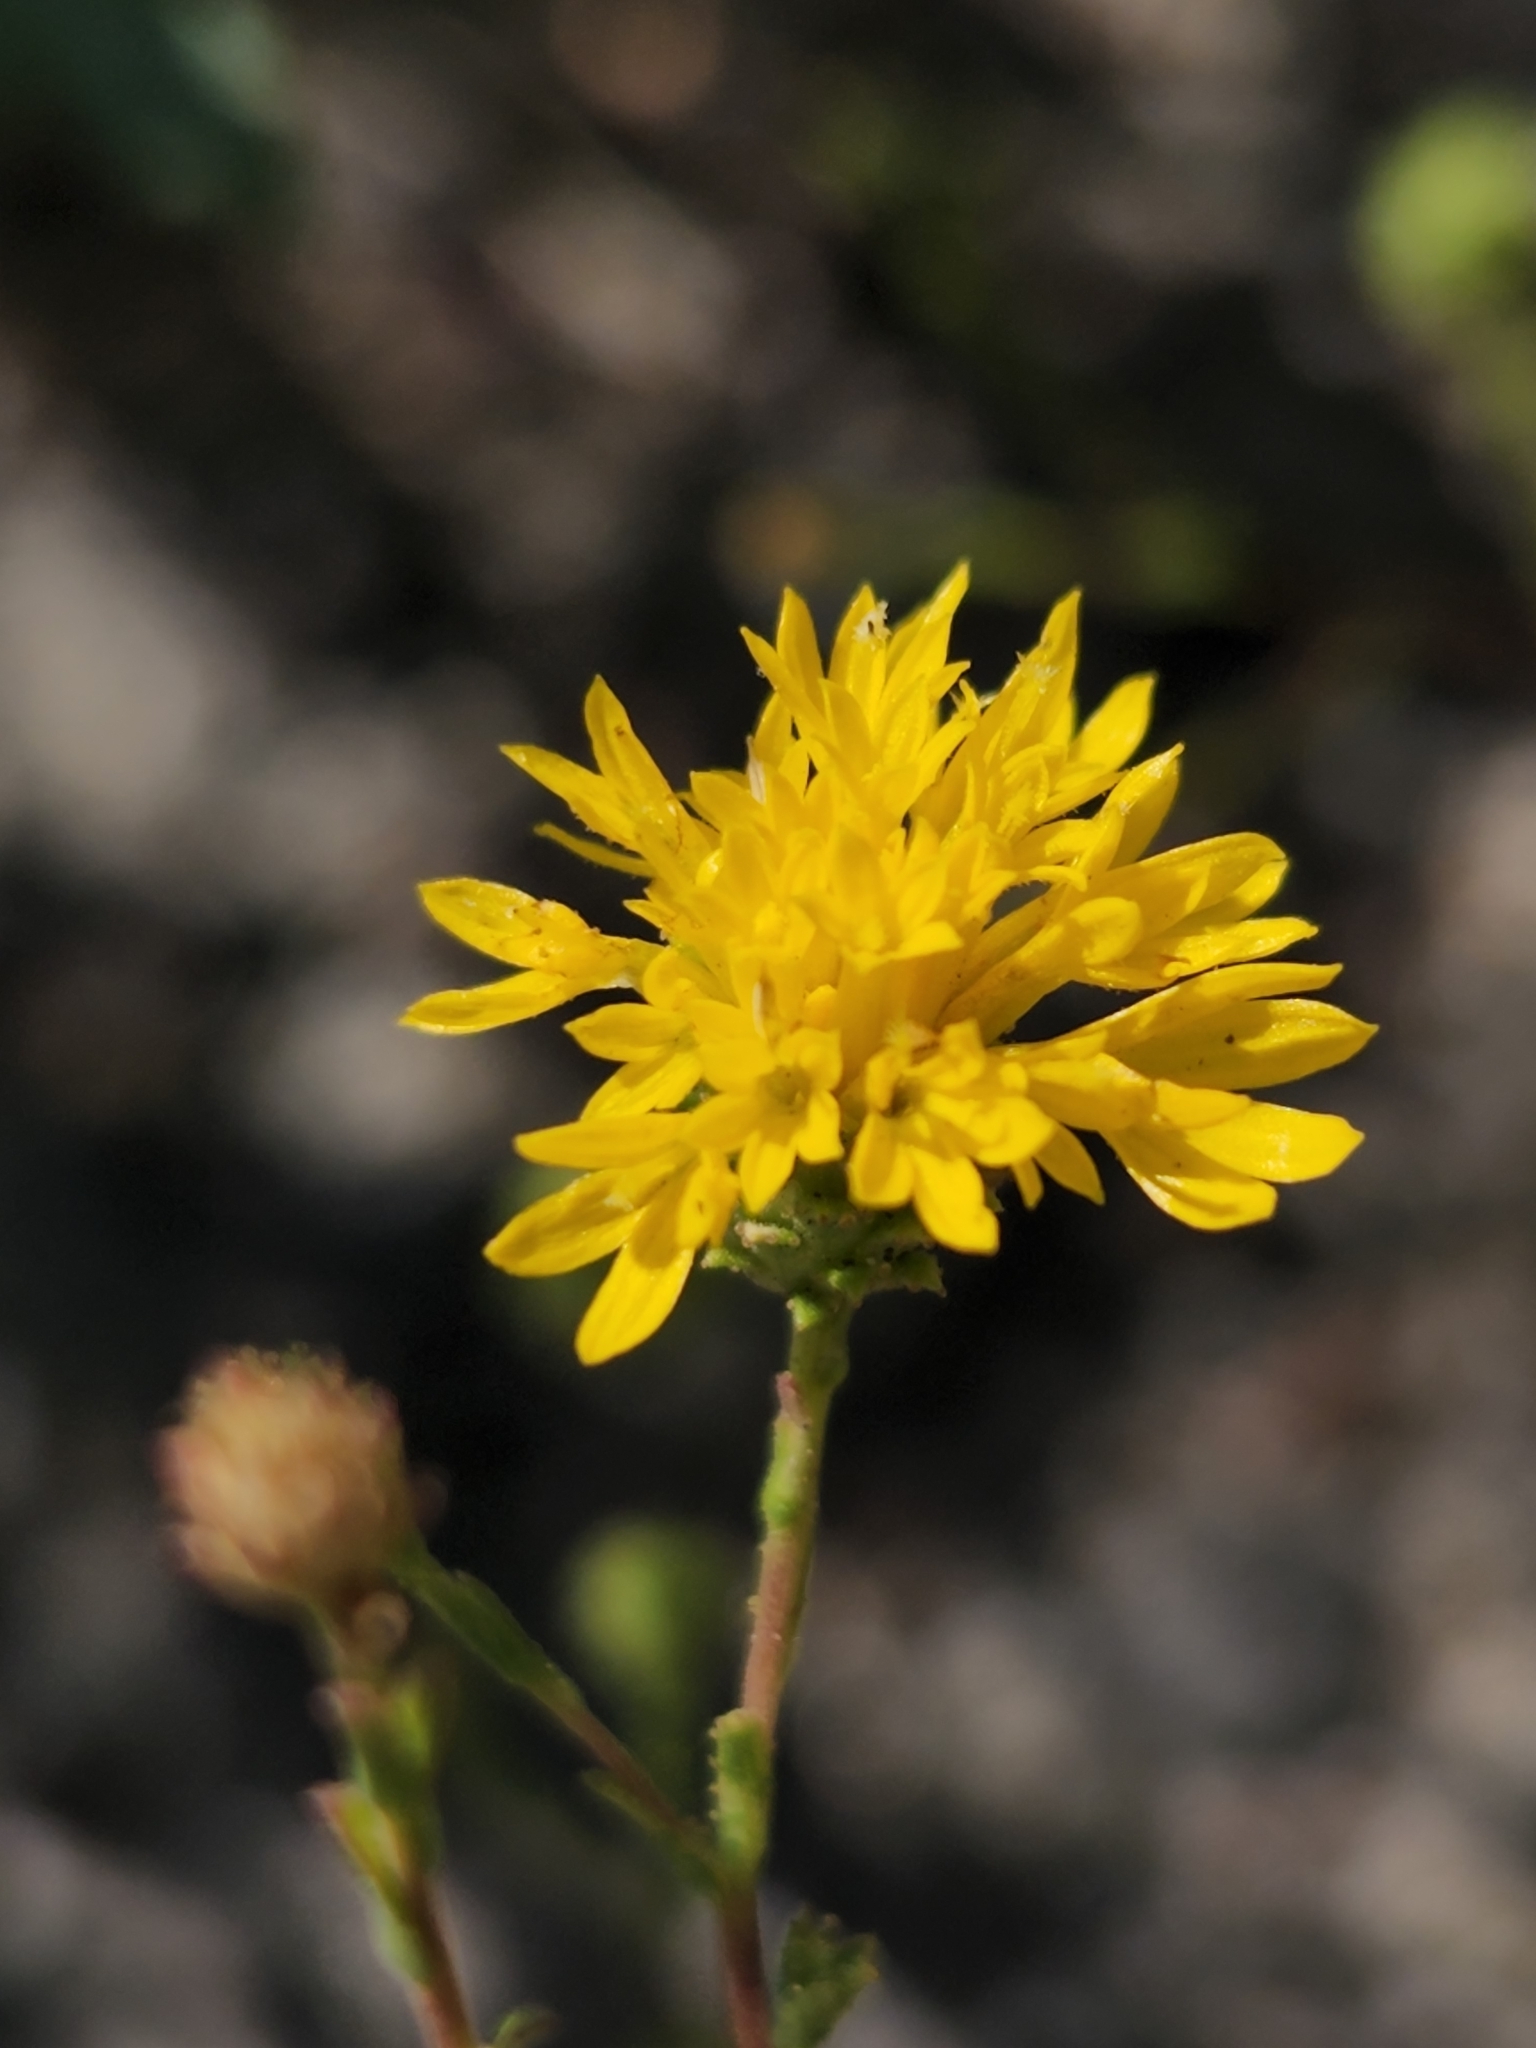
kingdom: Plantae
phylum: Tracheophyta
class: Magnoliopsida
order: Asterales
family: Asteraceae
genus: Lessingia
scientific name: Lessingia glandulifera
